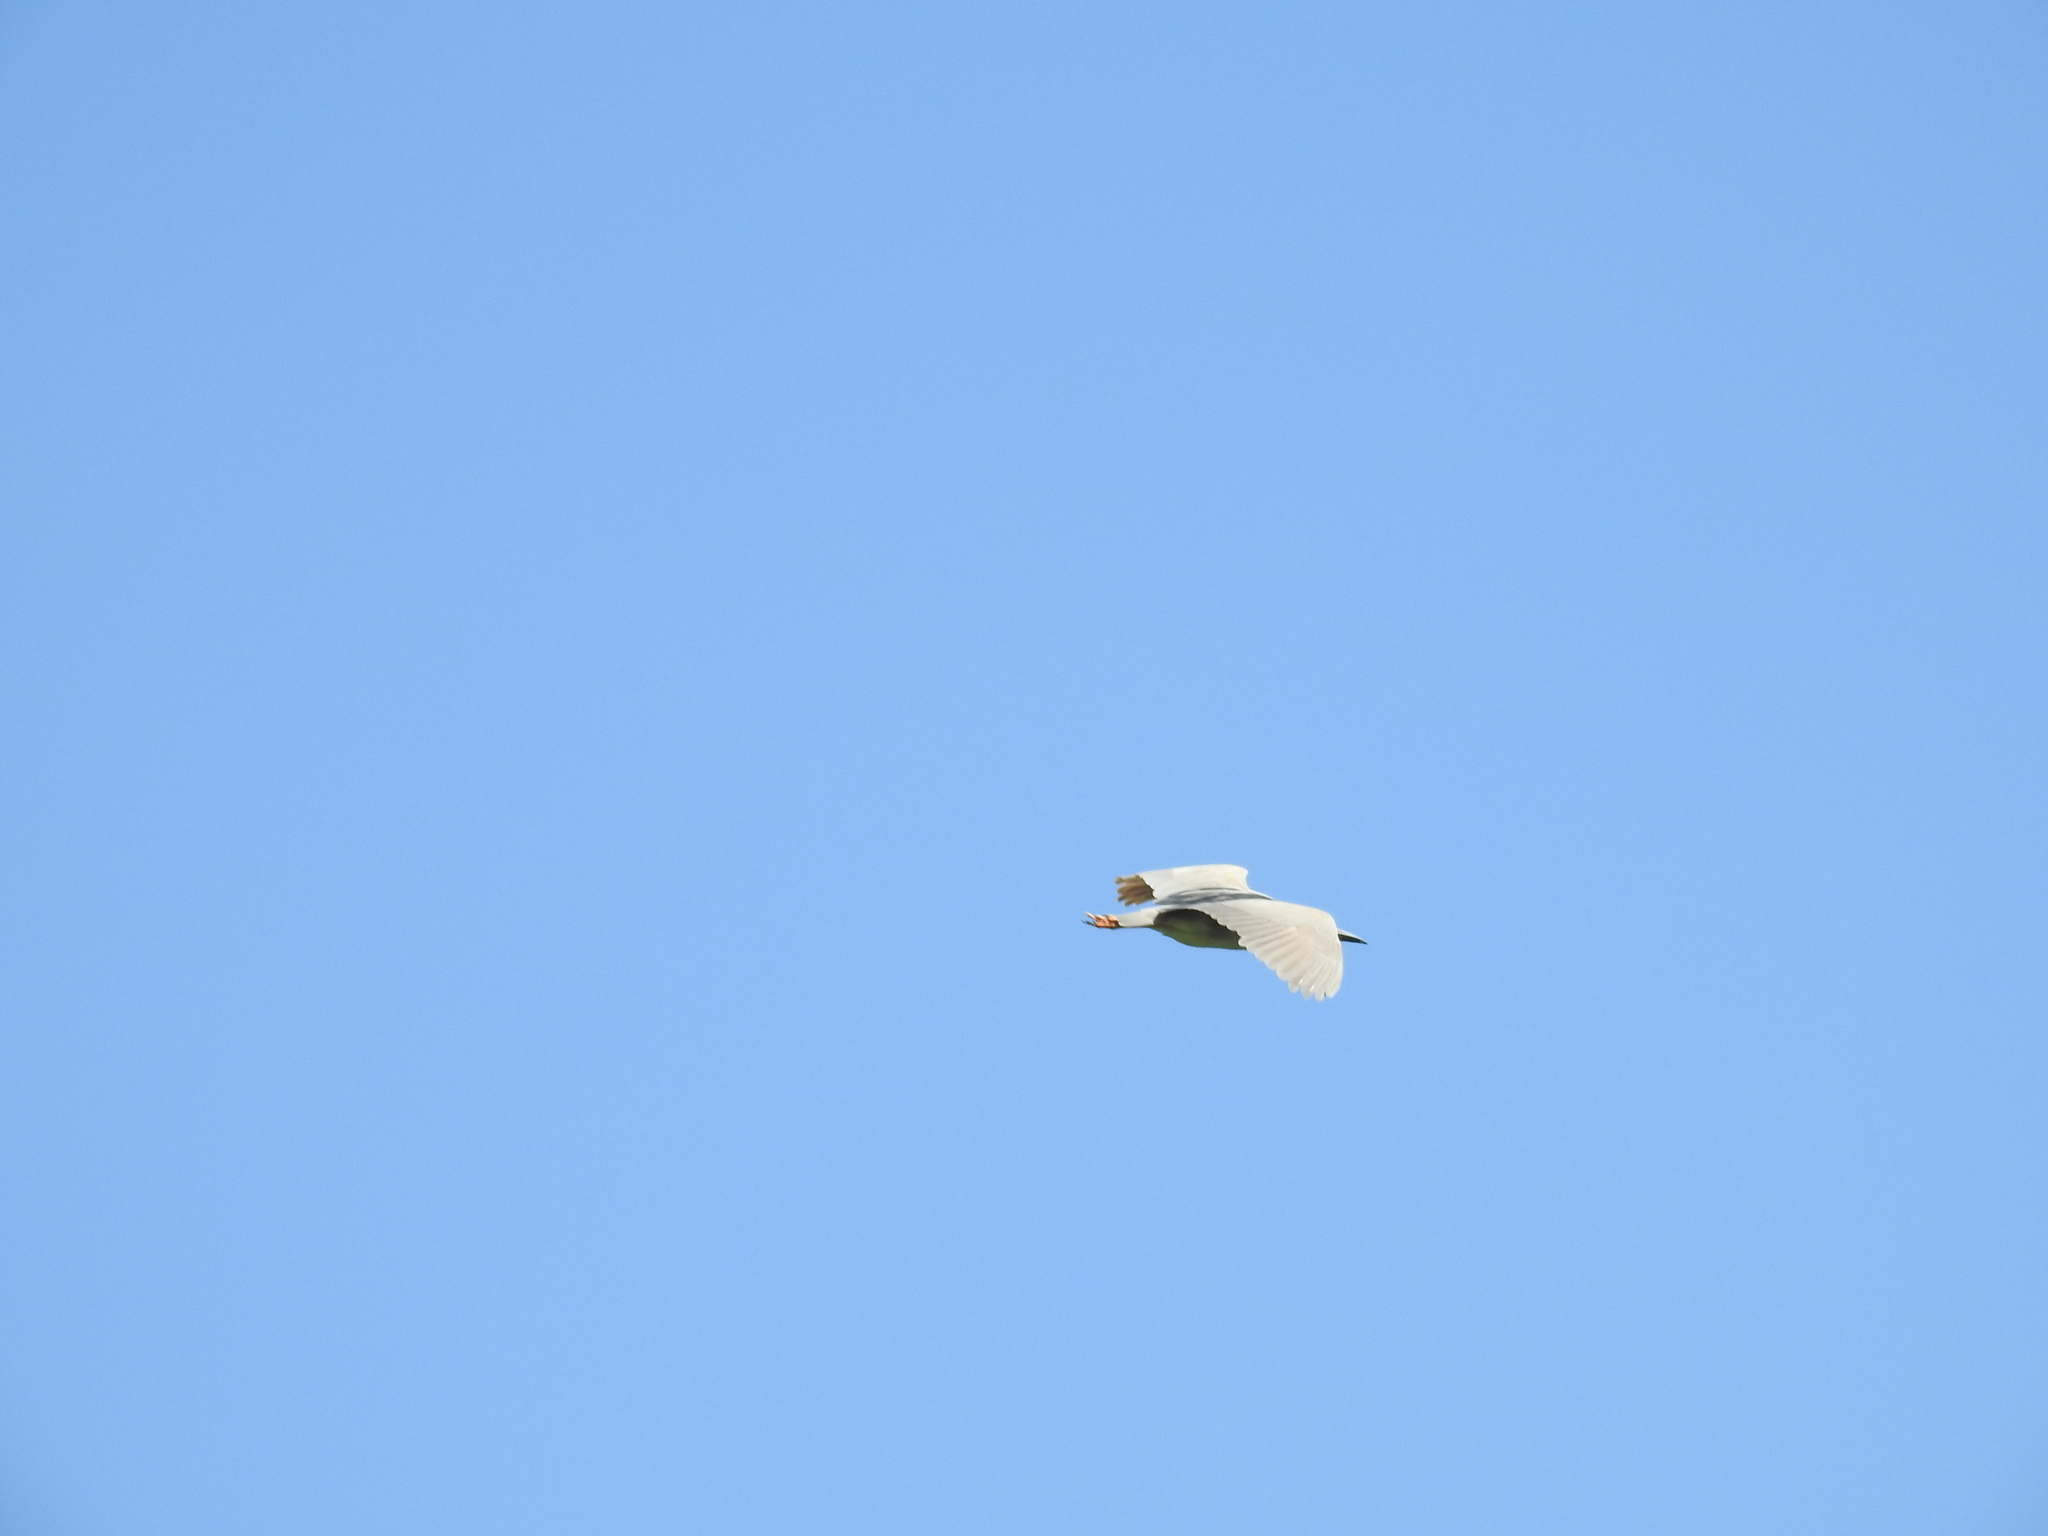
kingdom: Animalia
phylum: Chordata
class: Aves
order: Pelecaniformes
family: Ardeidae
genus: Nycticorax
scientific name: Nycticorax nycticorax
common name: Black-crowned night heron
